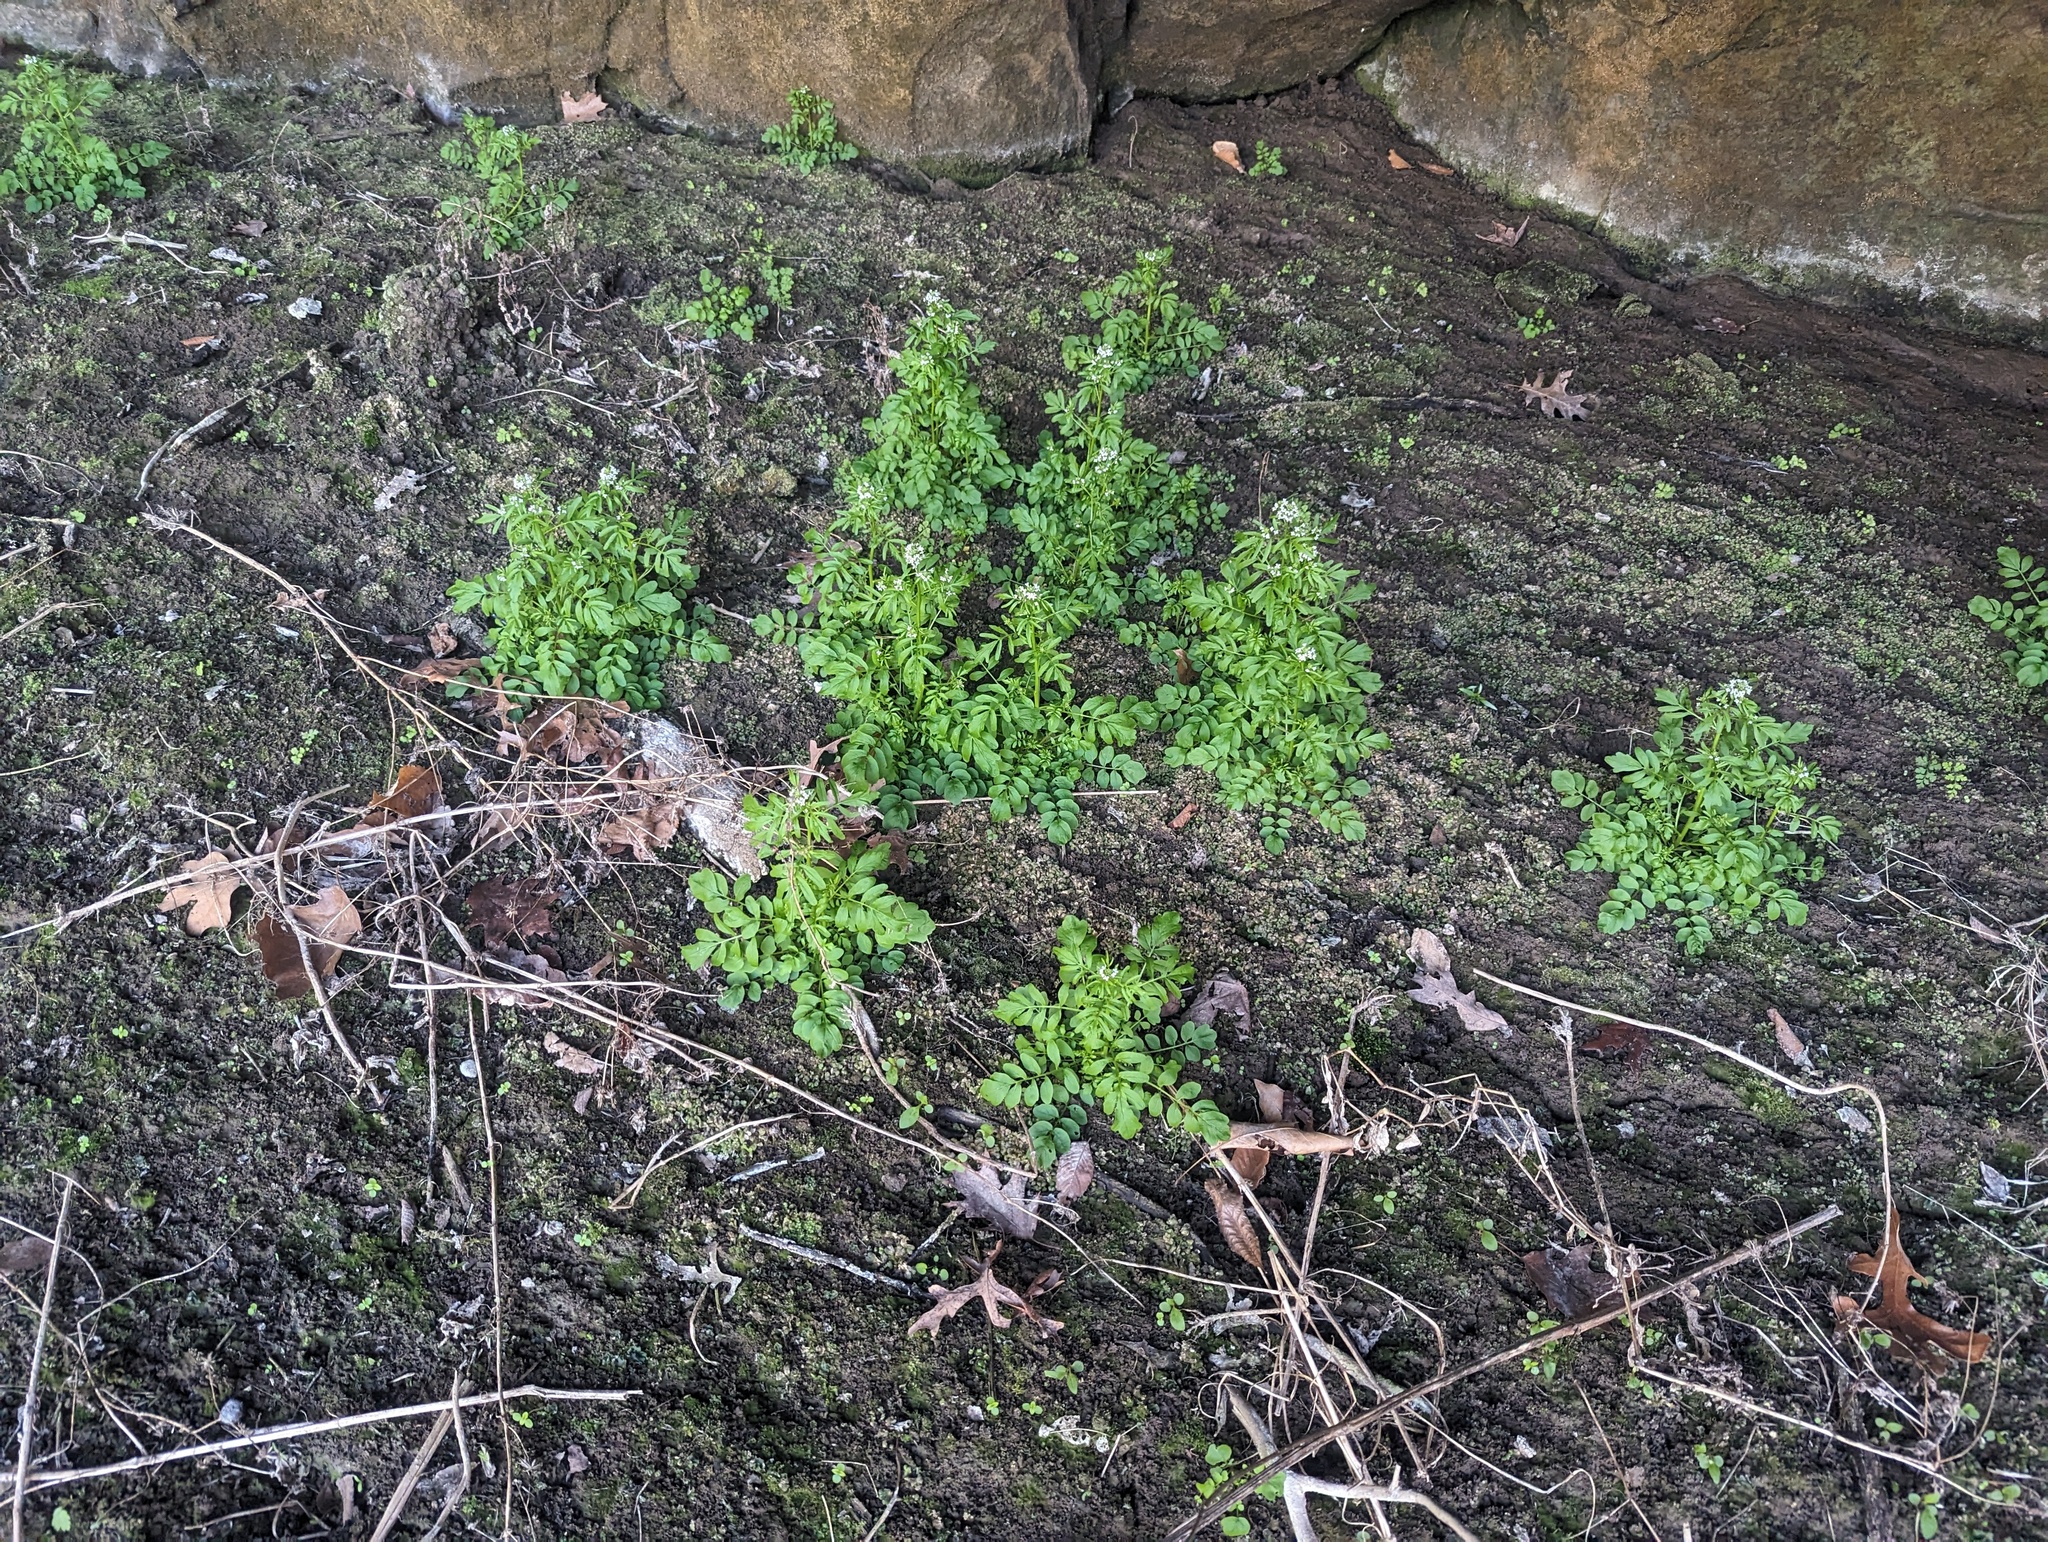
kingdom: Plantae
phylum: Tracheophyta
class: Magnoliopsida
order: Brassicales
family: Brassicaceae
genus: Cardamine
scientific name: Cardamine pensylvanica
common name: Pennsylvania bittercress
